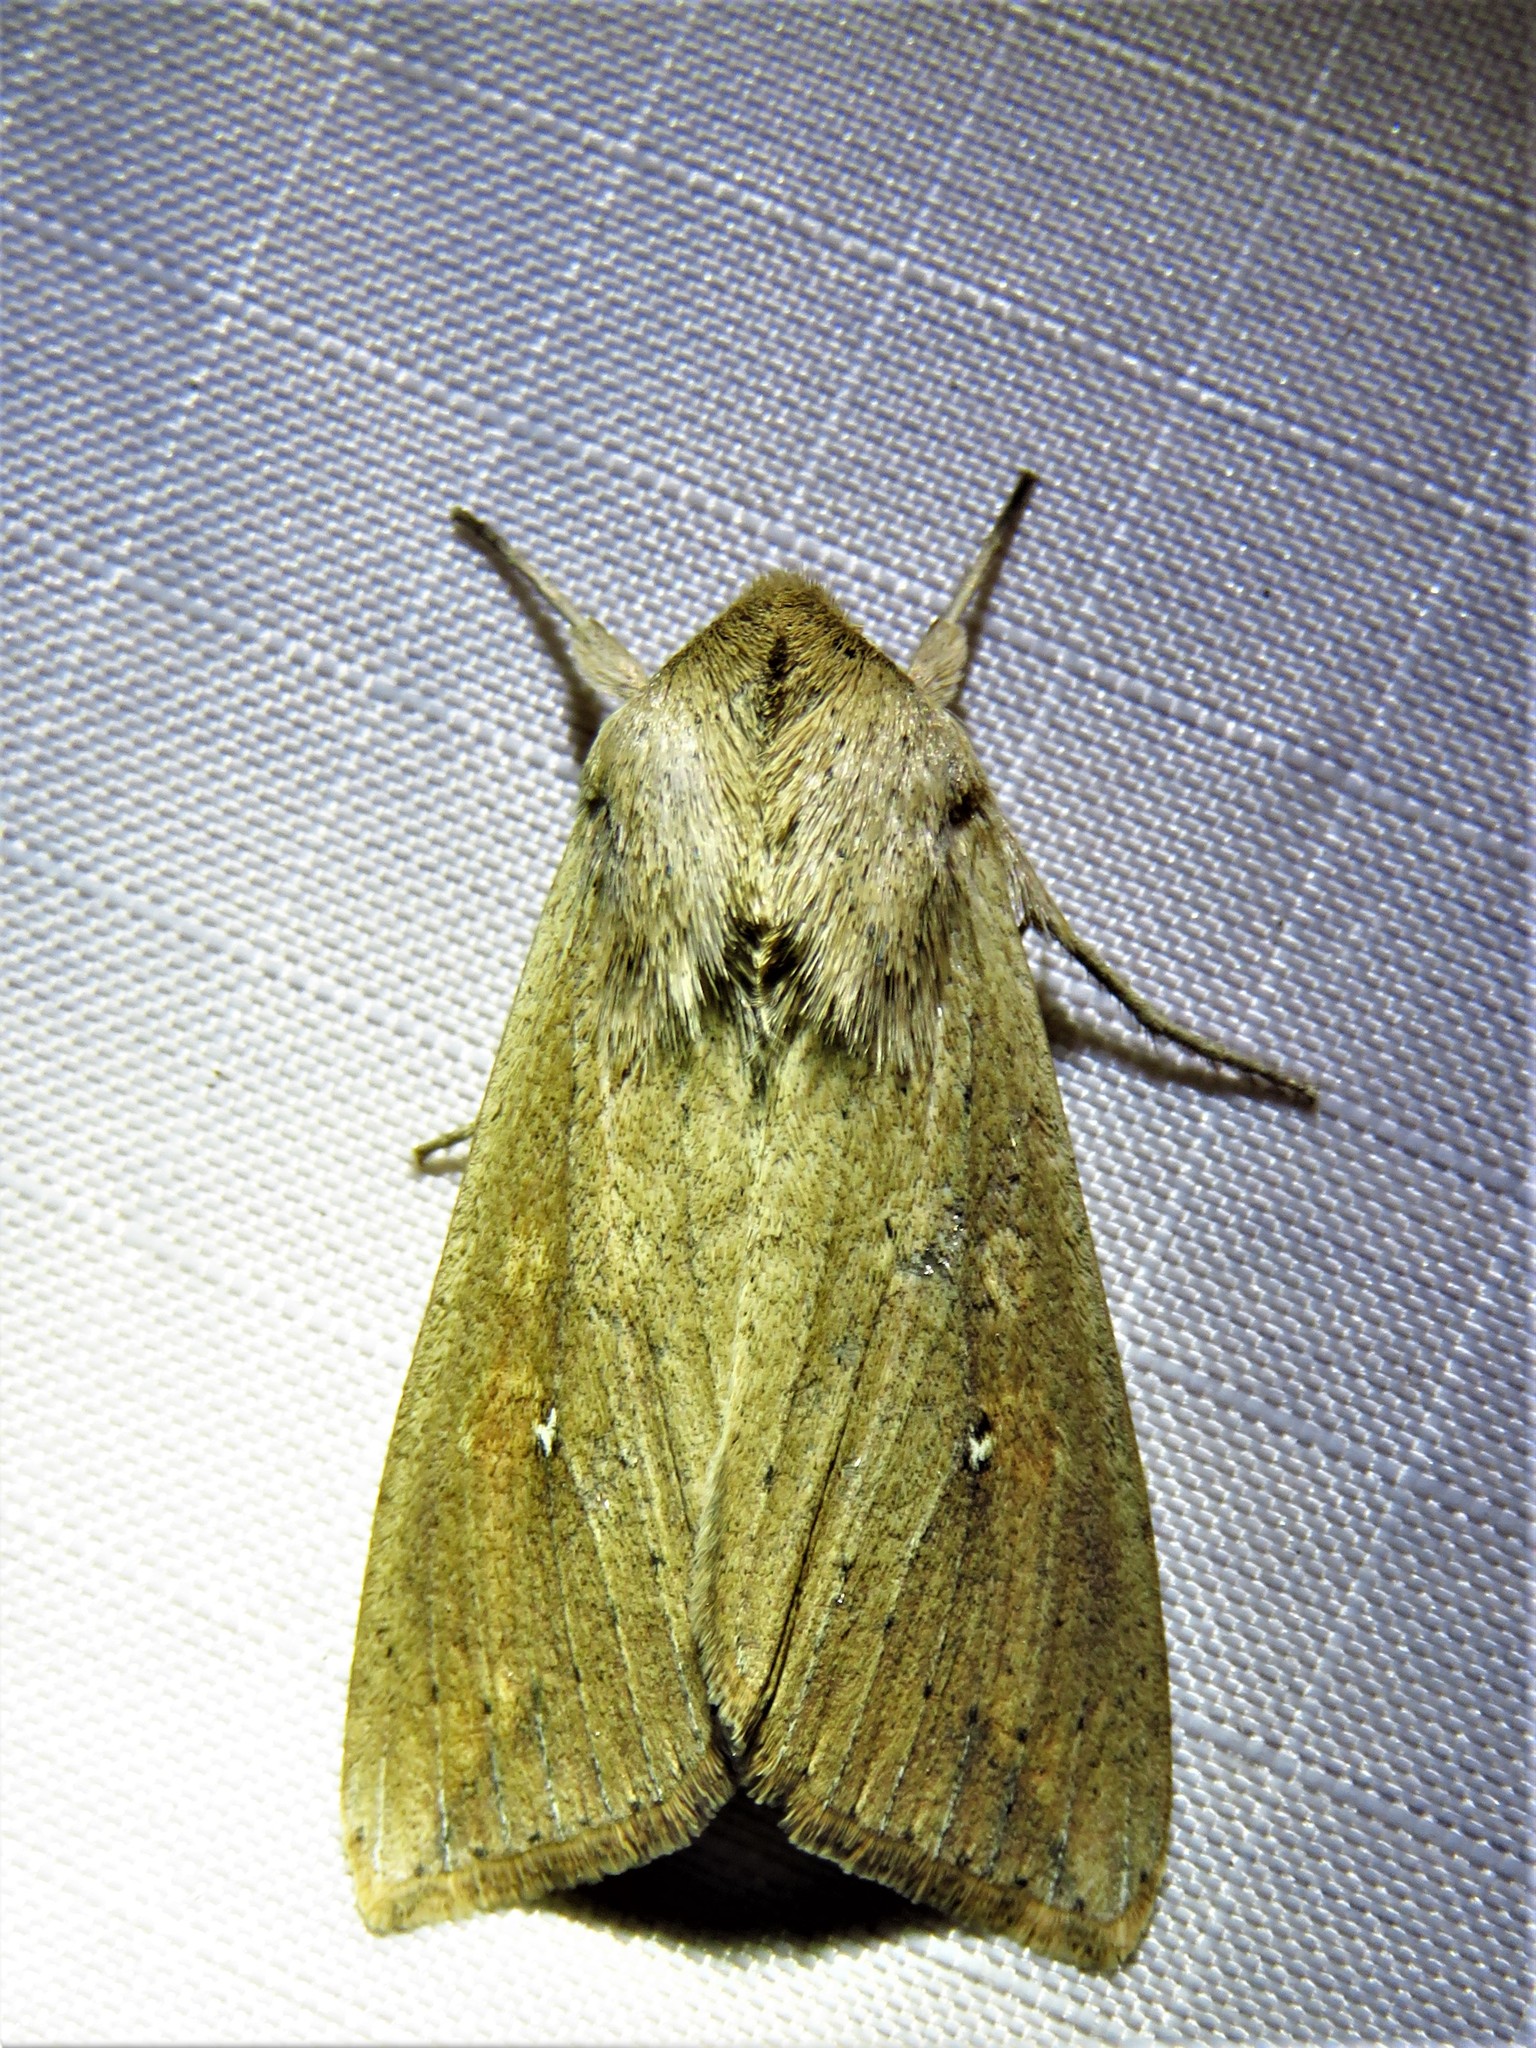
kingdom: Animalia
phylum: Arthropoda
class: Insecta
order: Lepidoptera
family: Noctuidae
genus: Mythimna
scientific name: Mythimna unipuncta
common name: White-speck
